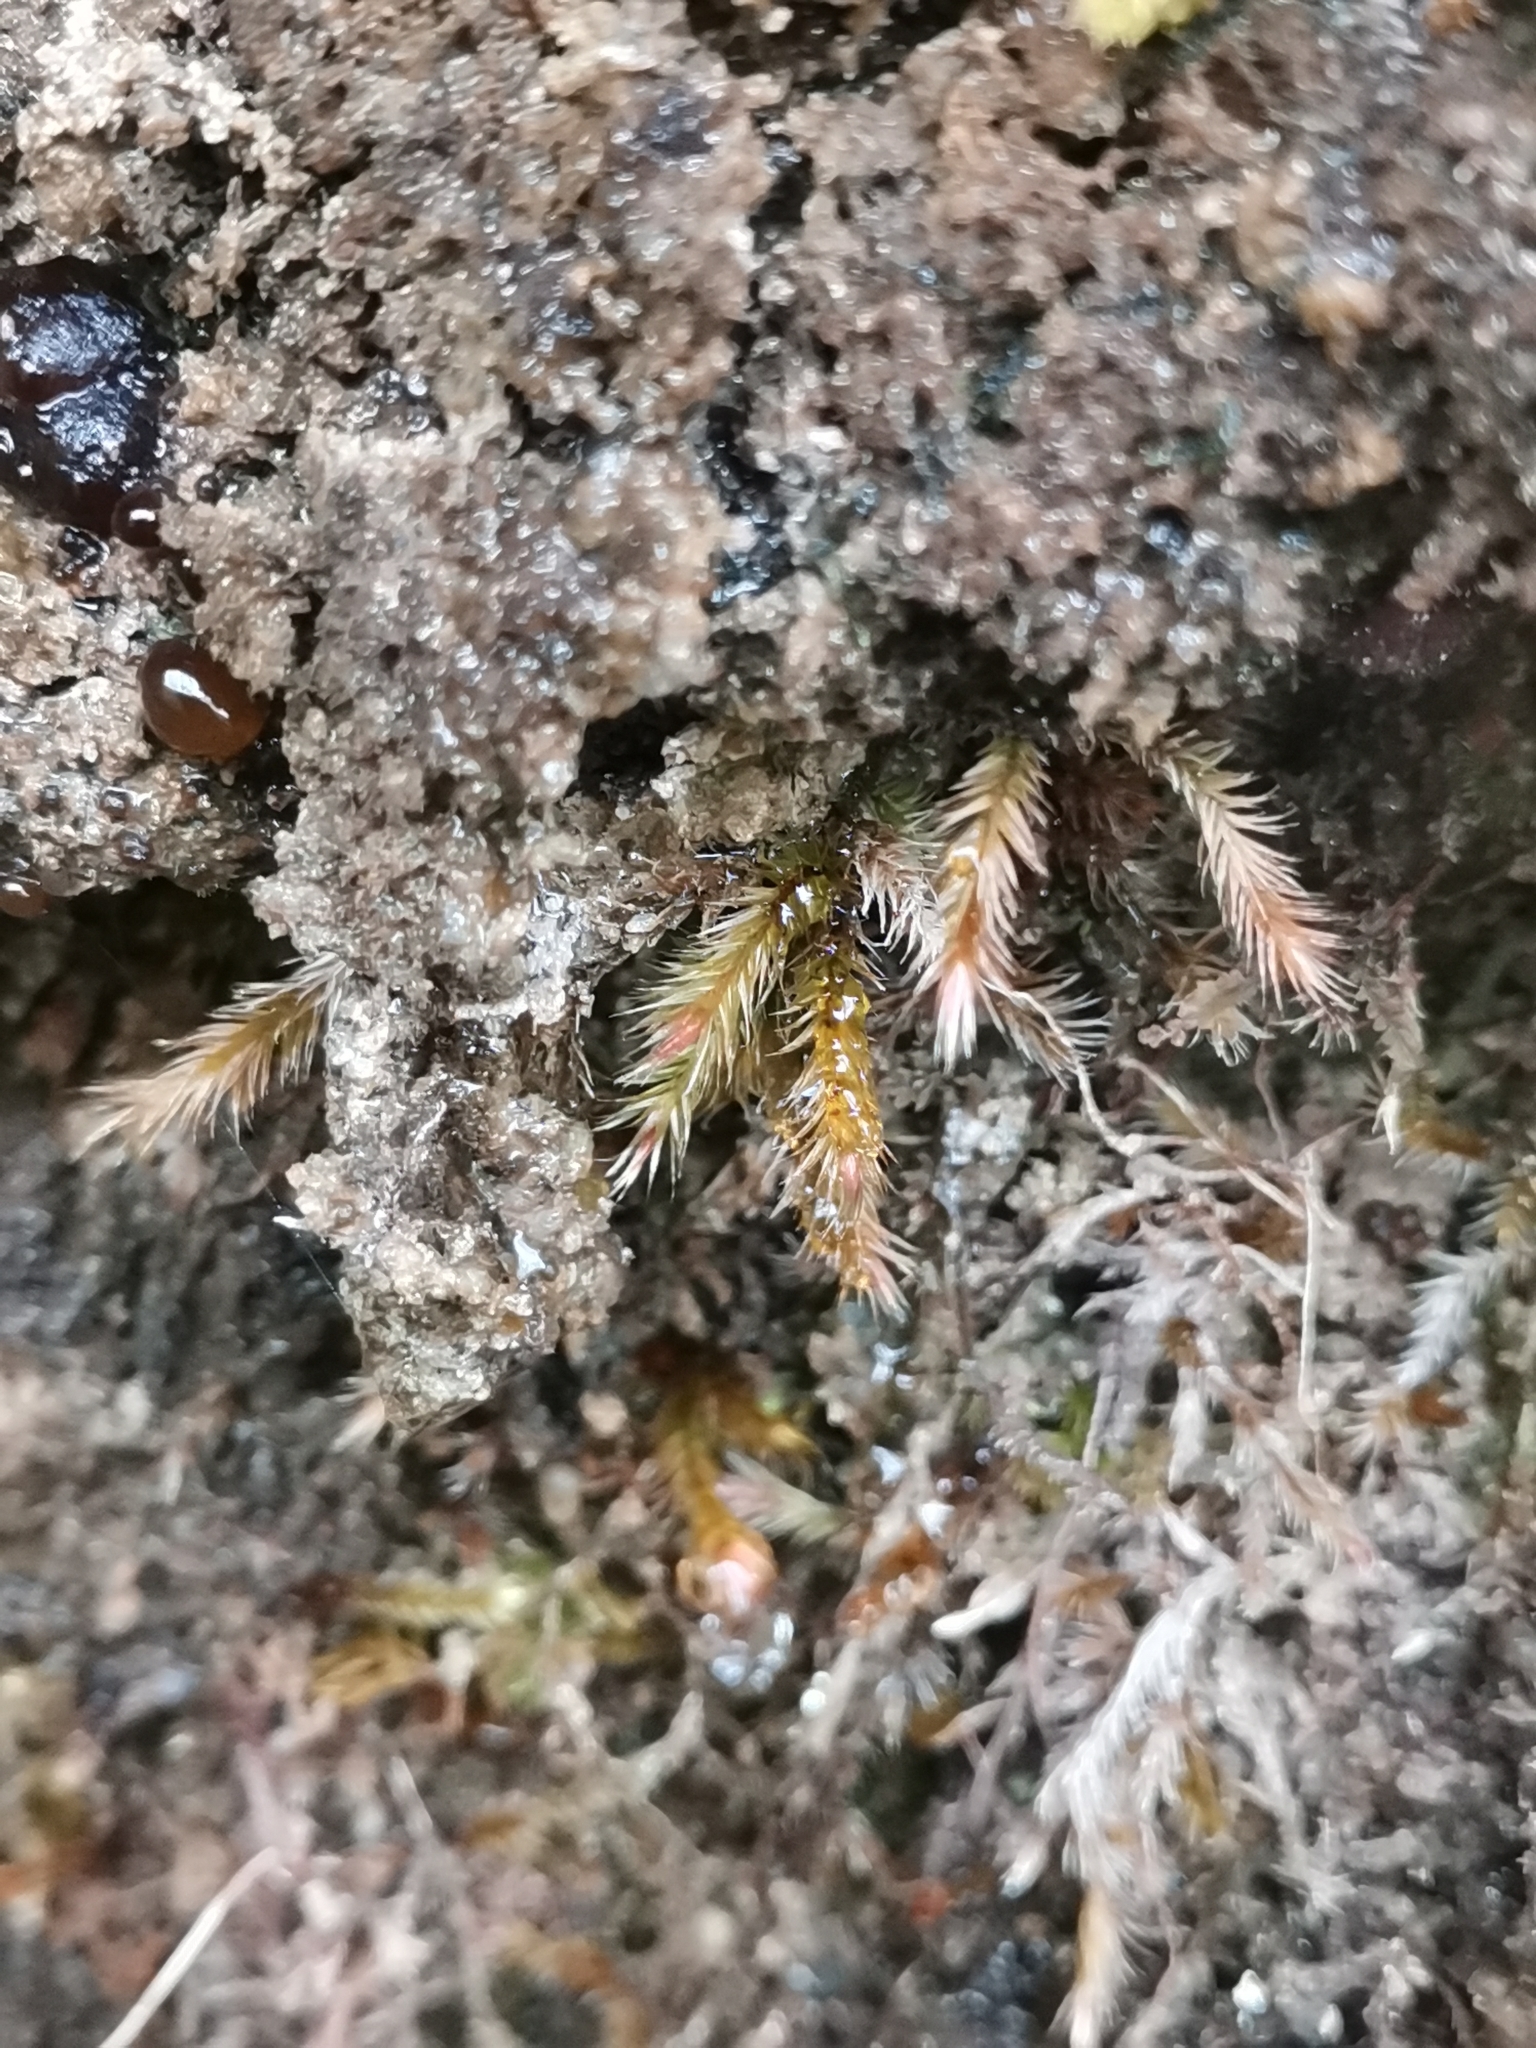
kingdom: Plantae
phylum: Bryophyta
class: Bryopsida
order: Hypnales
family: Plagiotheciaceae
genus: Orthothecium
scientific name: Orthothecium rufescens
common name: Red leskea
